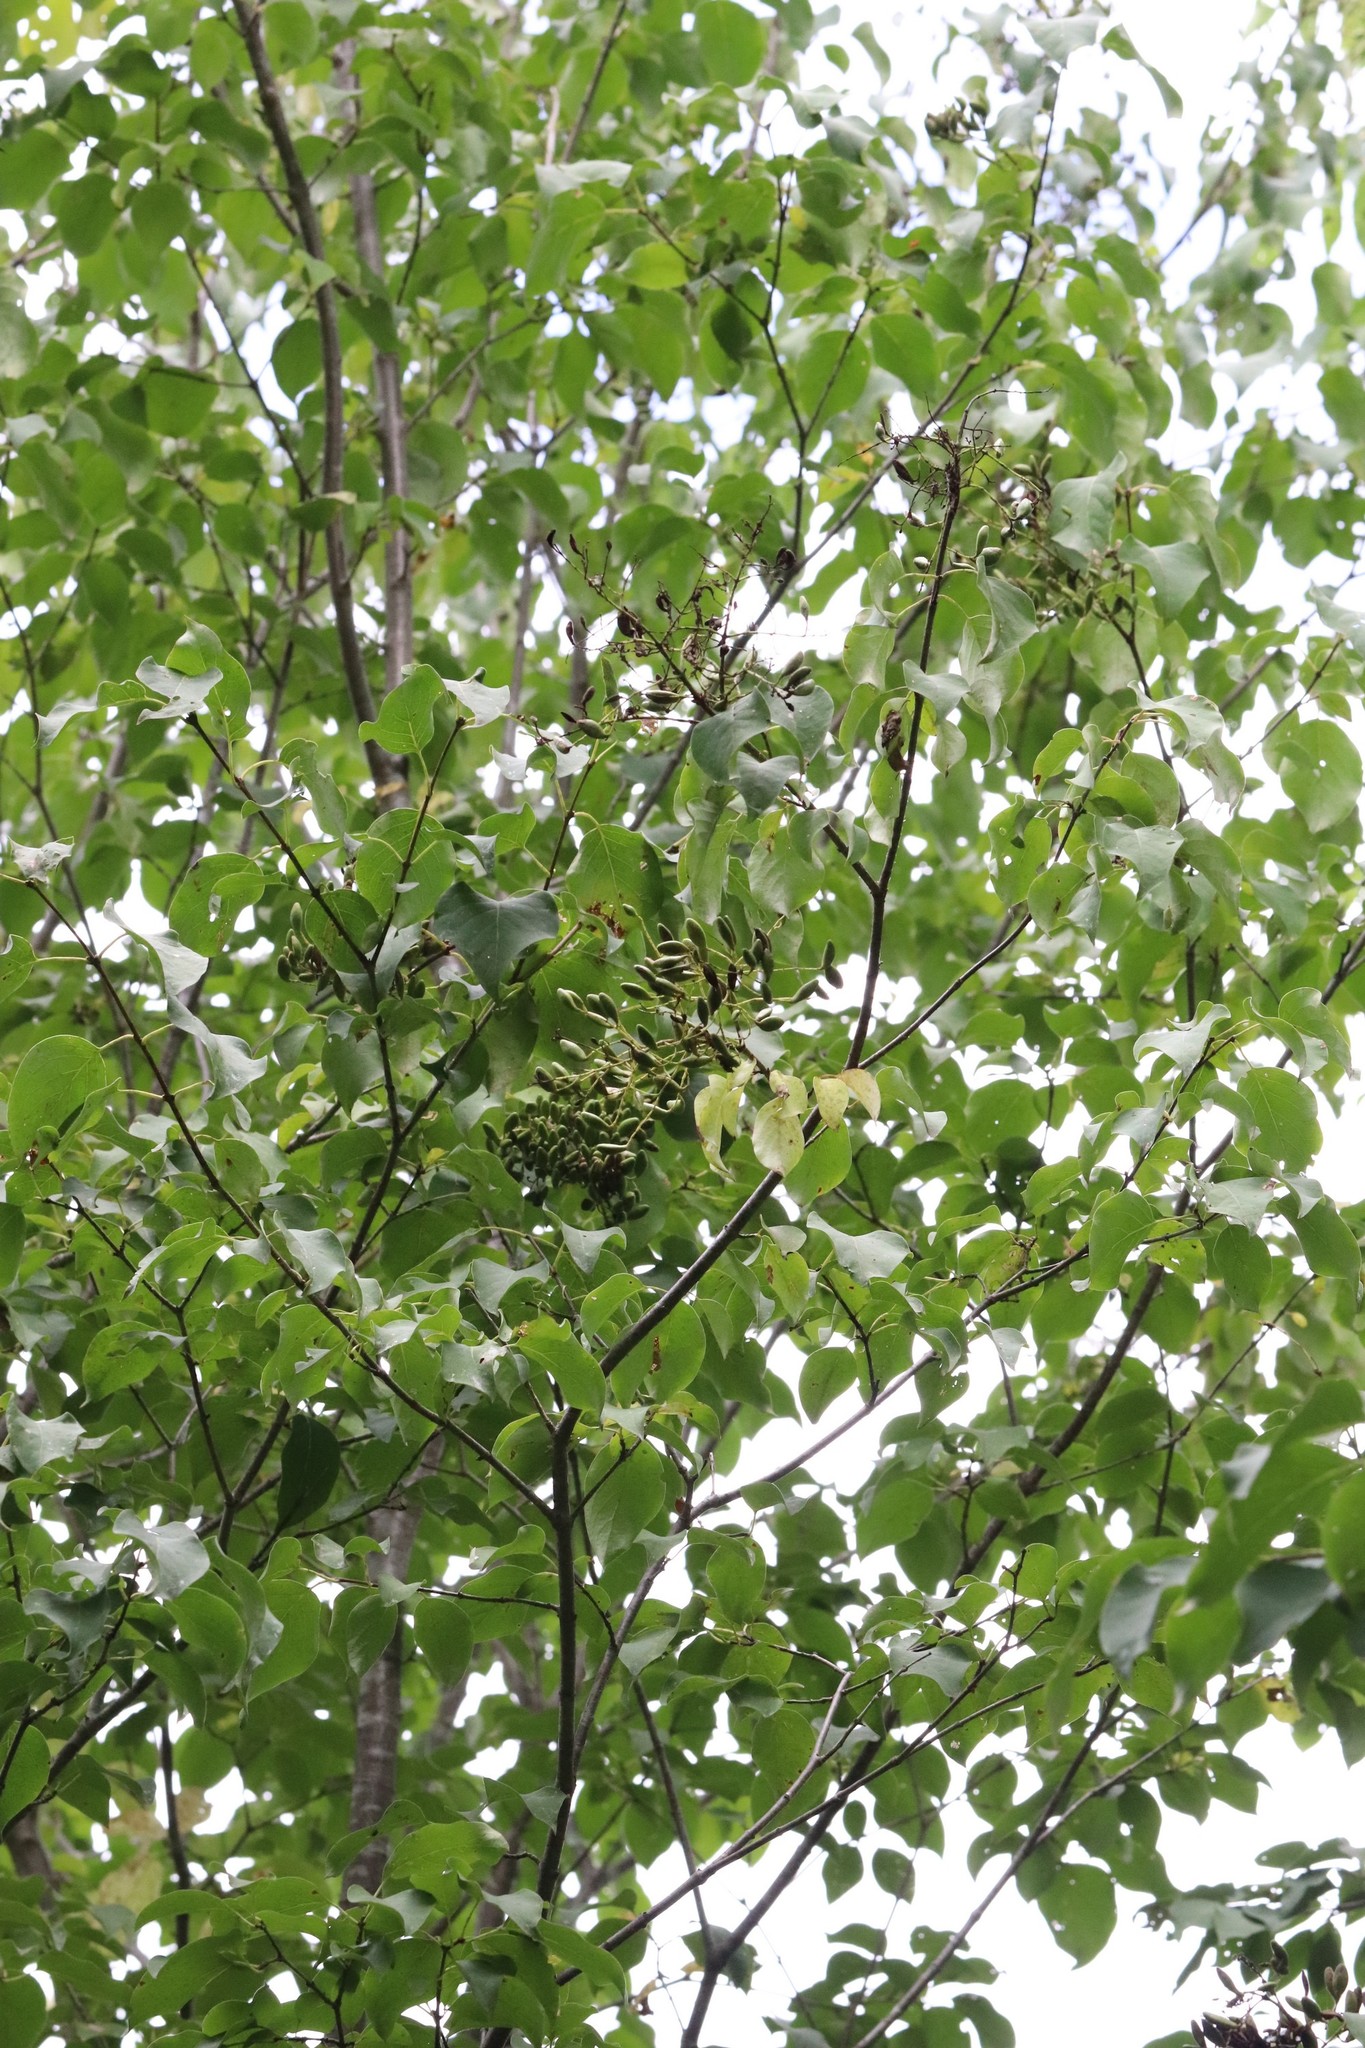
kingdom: Plantae
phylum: Tracheophyta
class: Magnoliopsida
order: Lamiales
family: Oleaceae
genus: Syringa
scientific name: Syringa reticulata
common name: Japanese tree lilac
